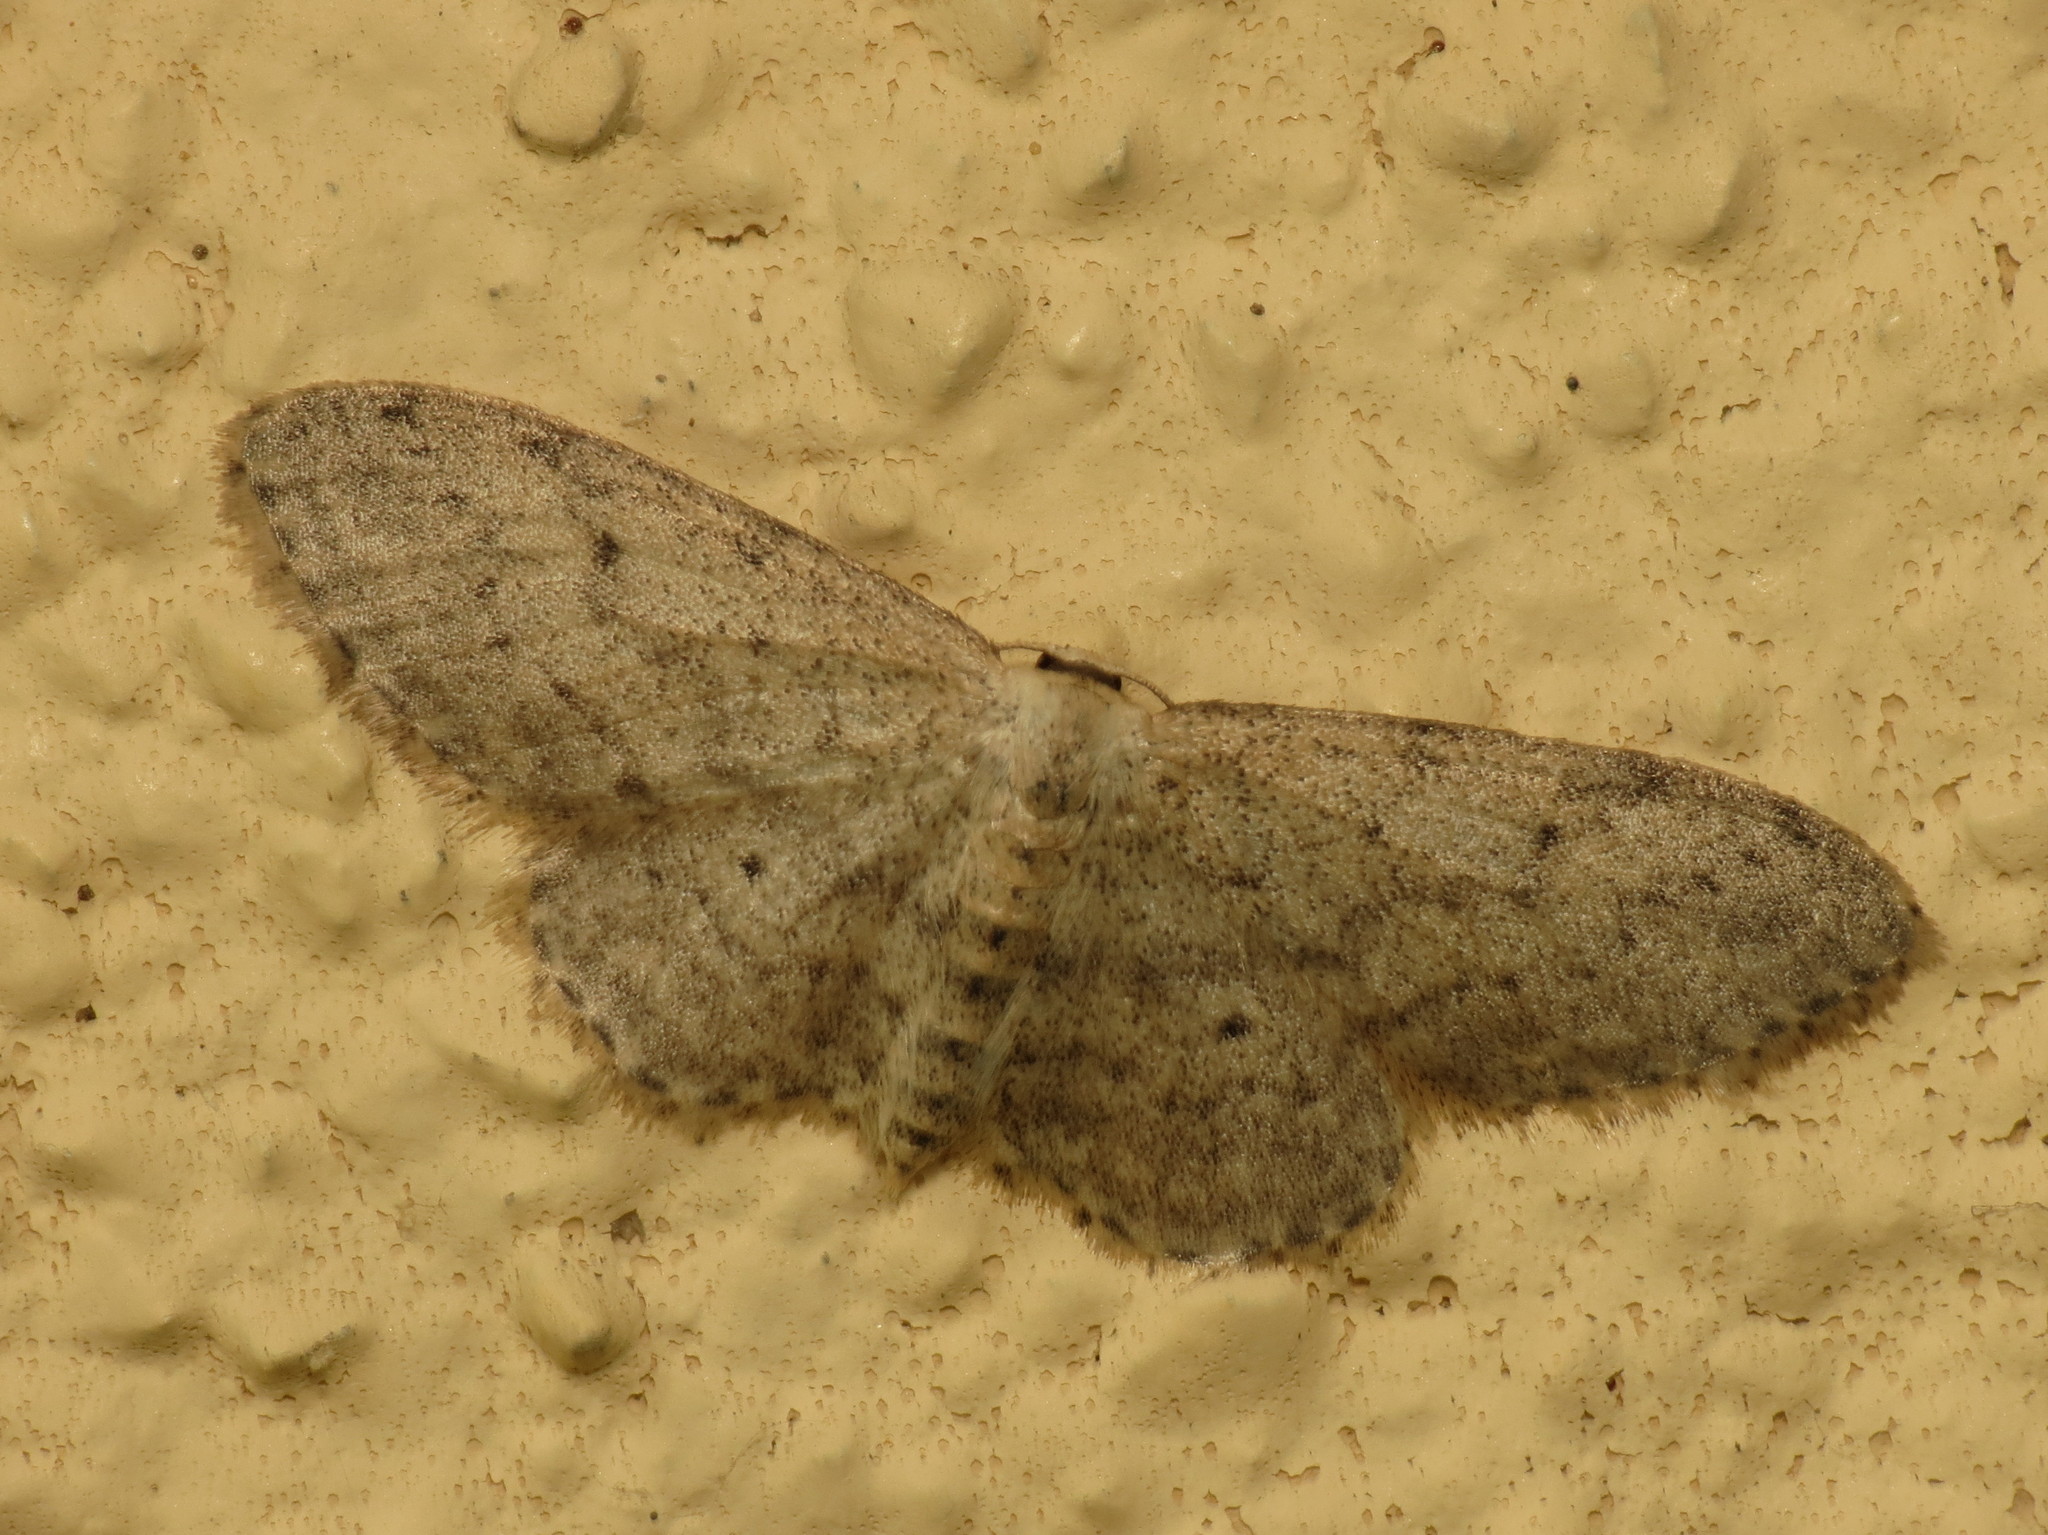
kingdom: Animalia
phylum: Arthropoda
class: Insecta
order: Lepidoptera
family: Geometridae
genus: Idaea
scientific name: Idaea seriata
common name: Small dusty wave
